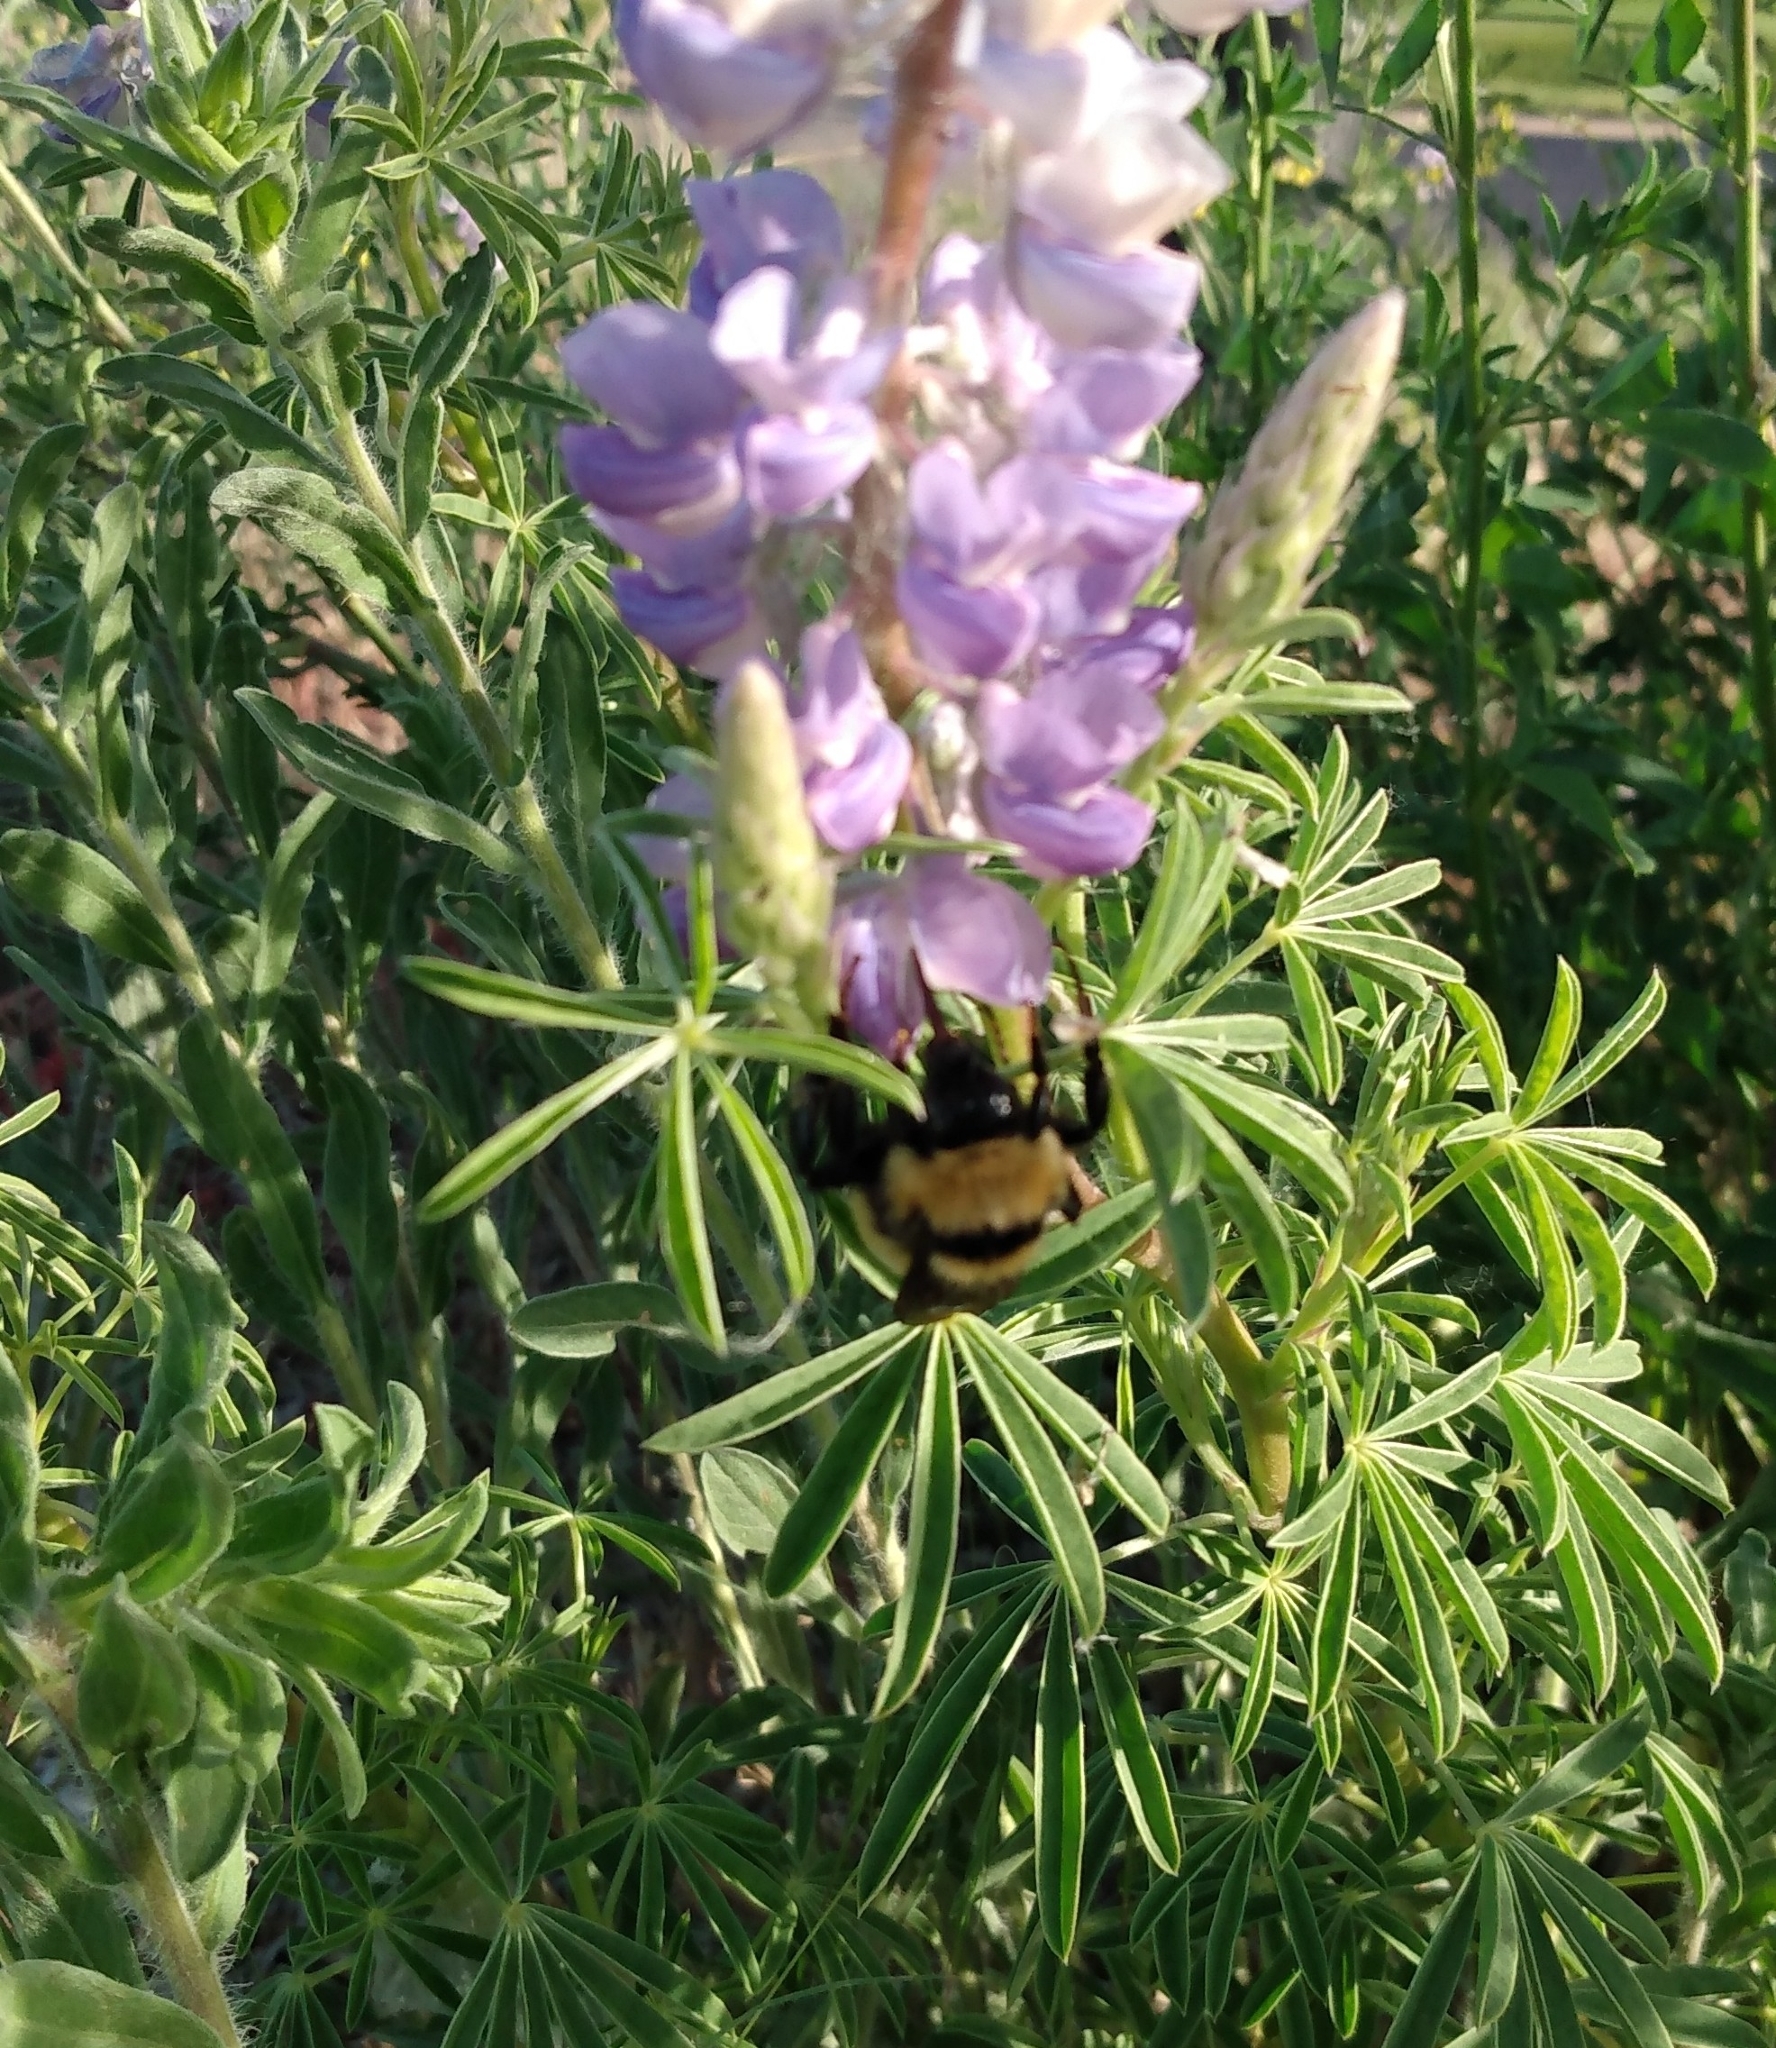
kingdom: Animalia
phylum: Arthropoda
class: Insecta
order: Hymenoptera
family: Apidae
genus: Bombus
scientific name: Bombus fervidus
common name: Yellow bumble bee
